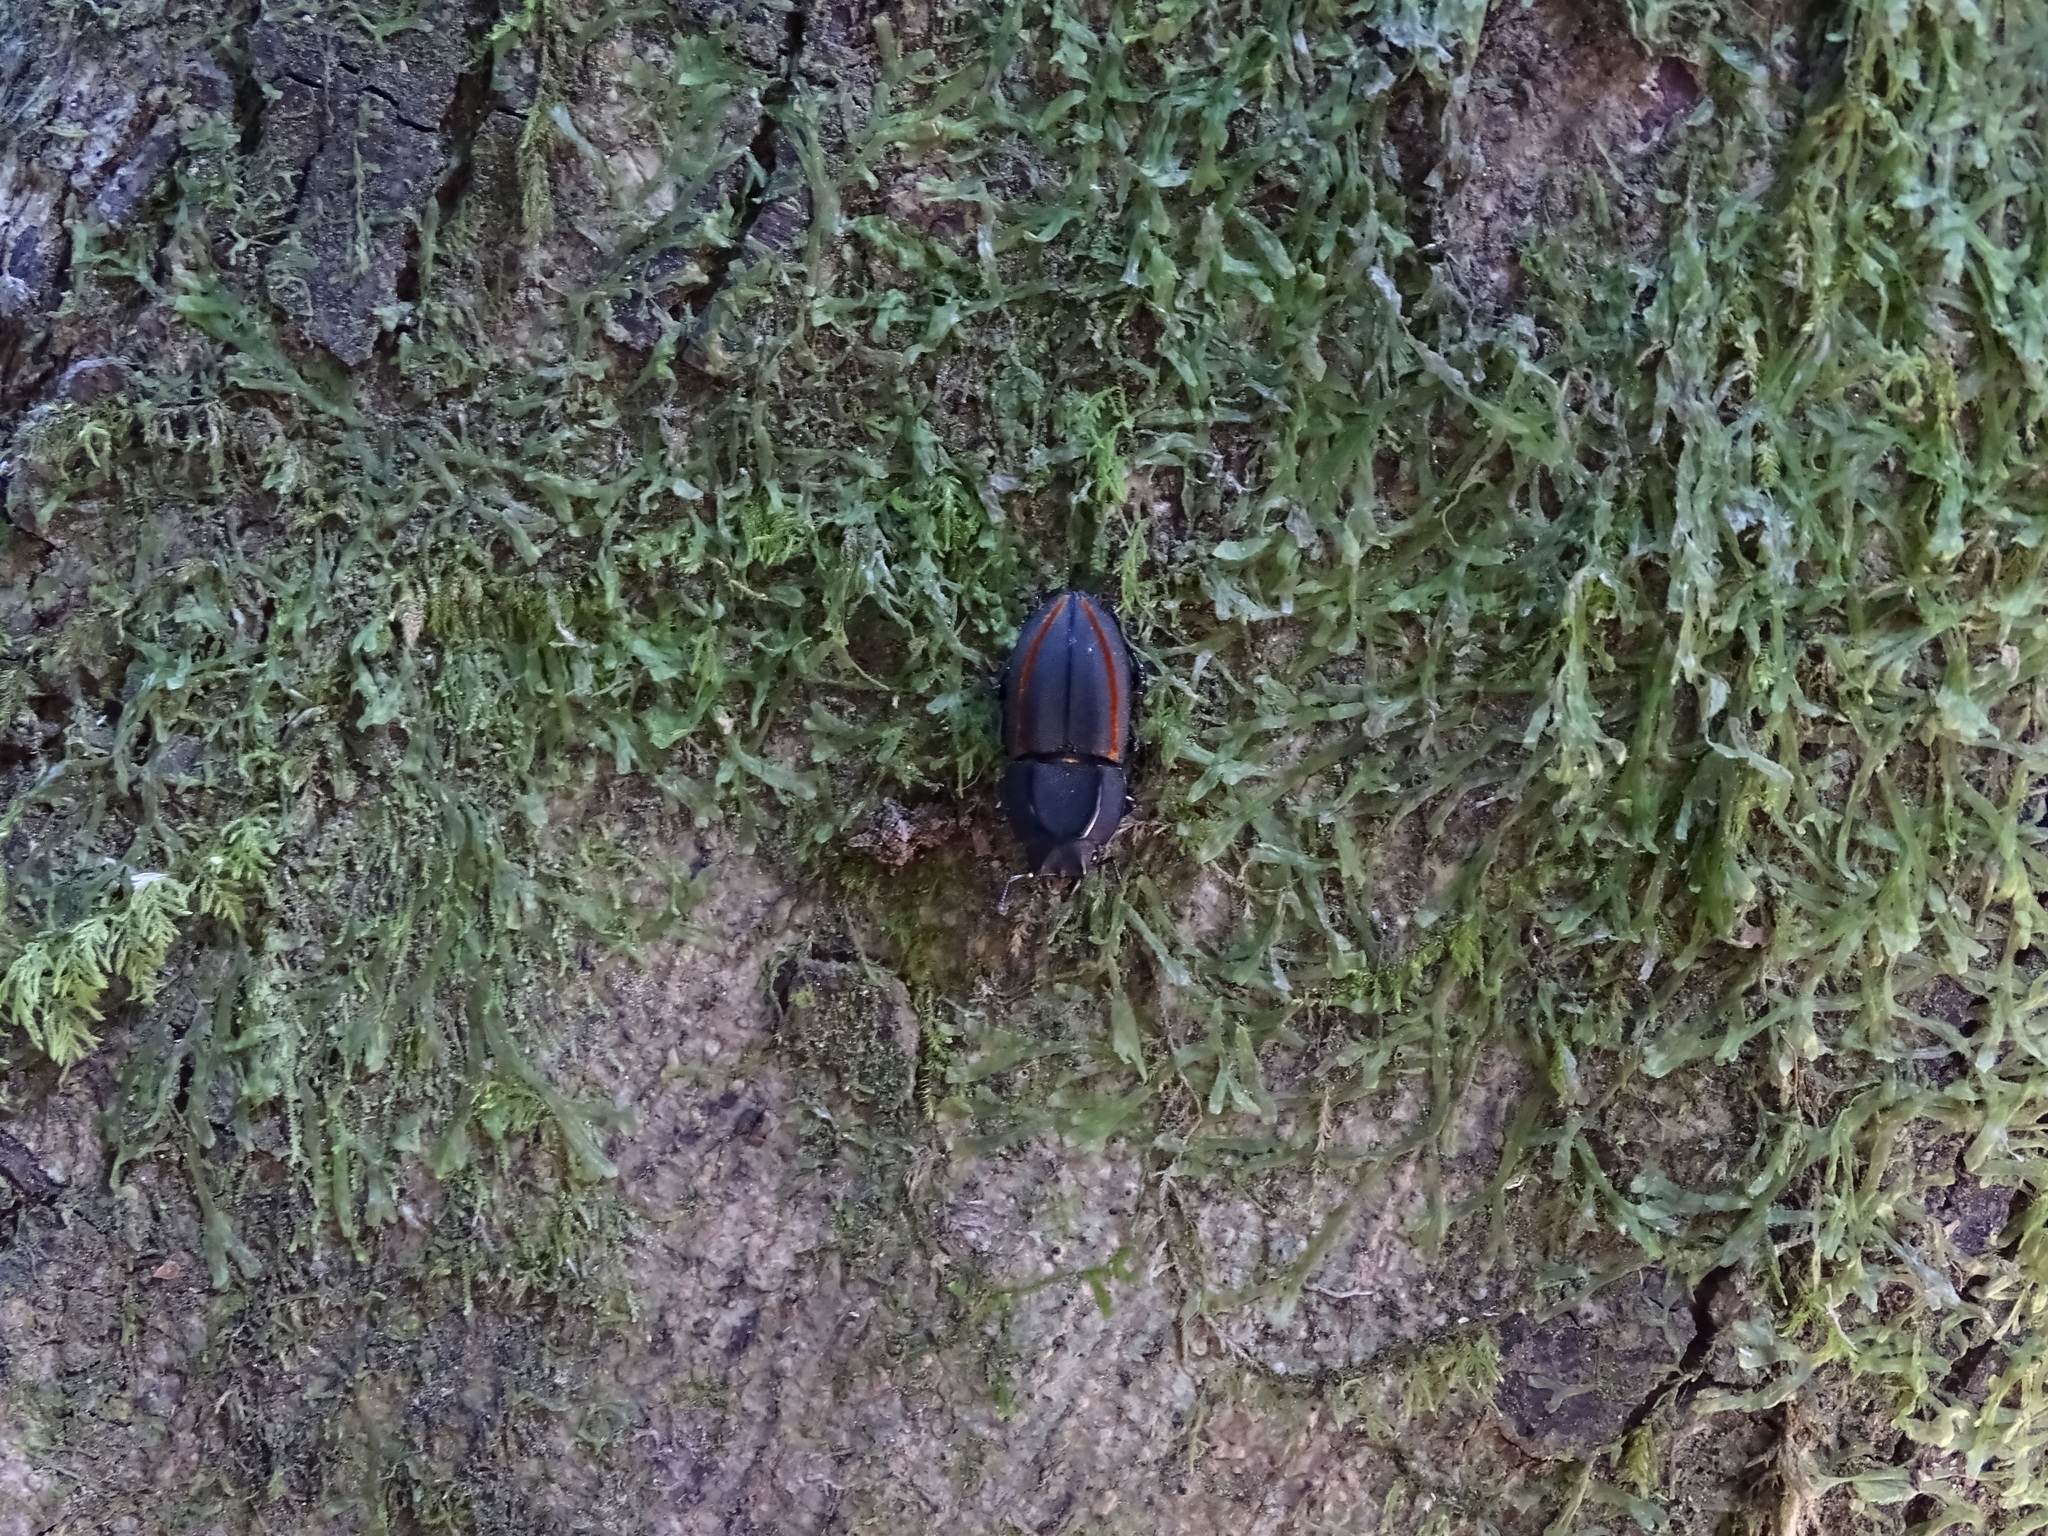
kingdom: Animalia
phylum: Arthropoda
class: Insecta
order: Coleoptera
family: Lucanidae
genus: Erichius
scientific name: Erichius vittatus
